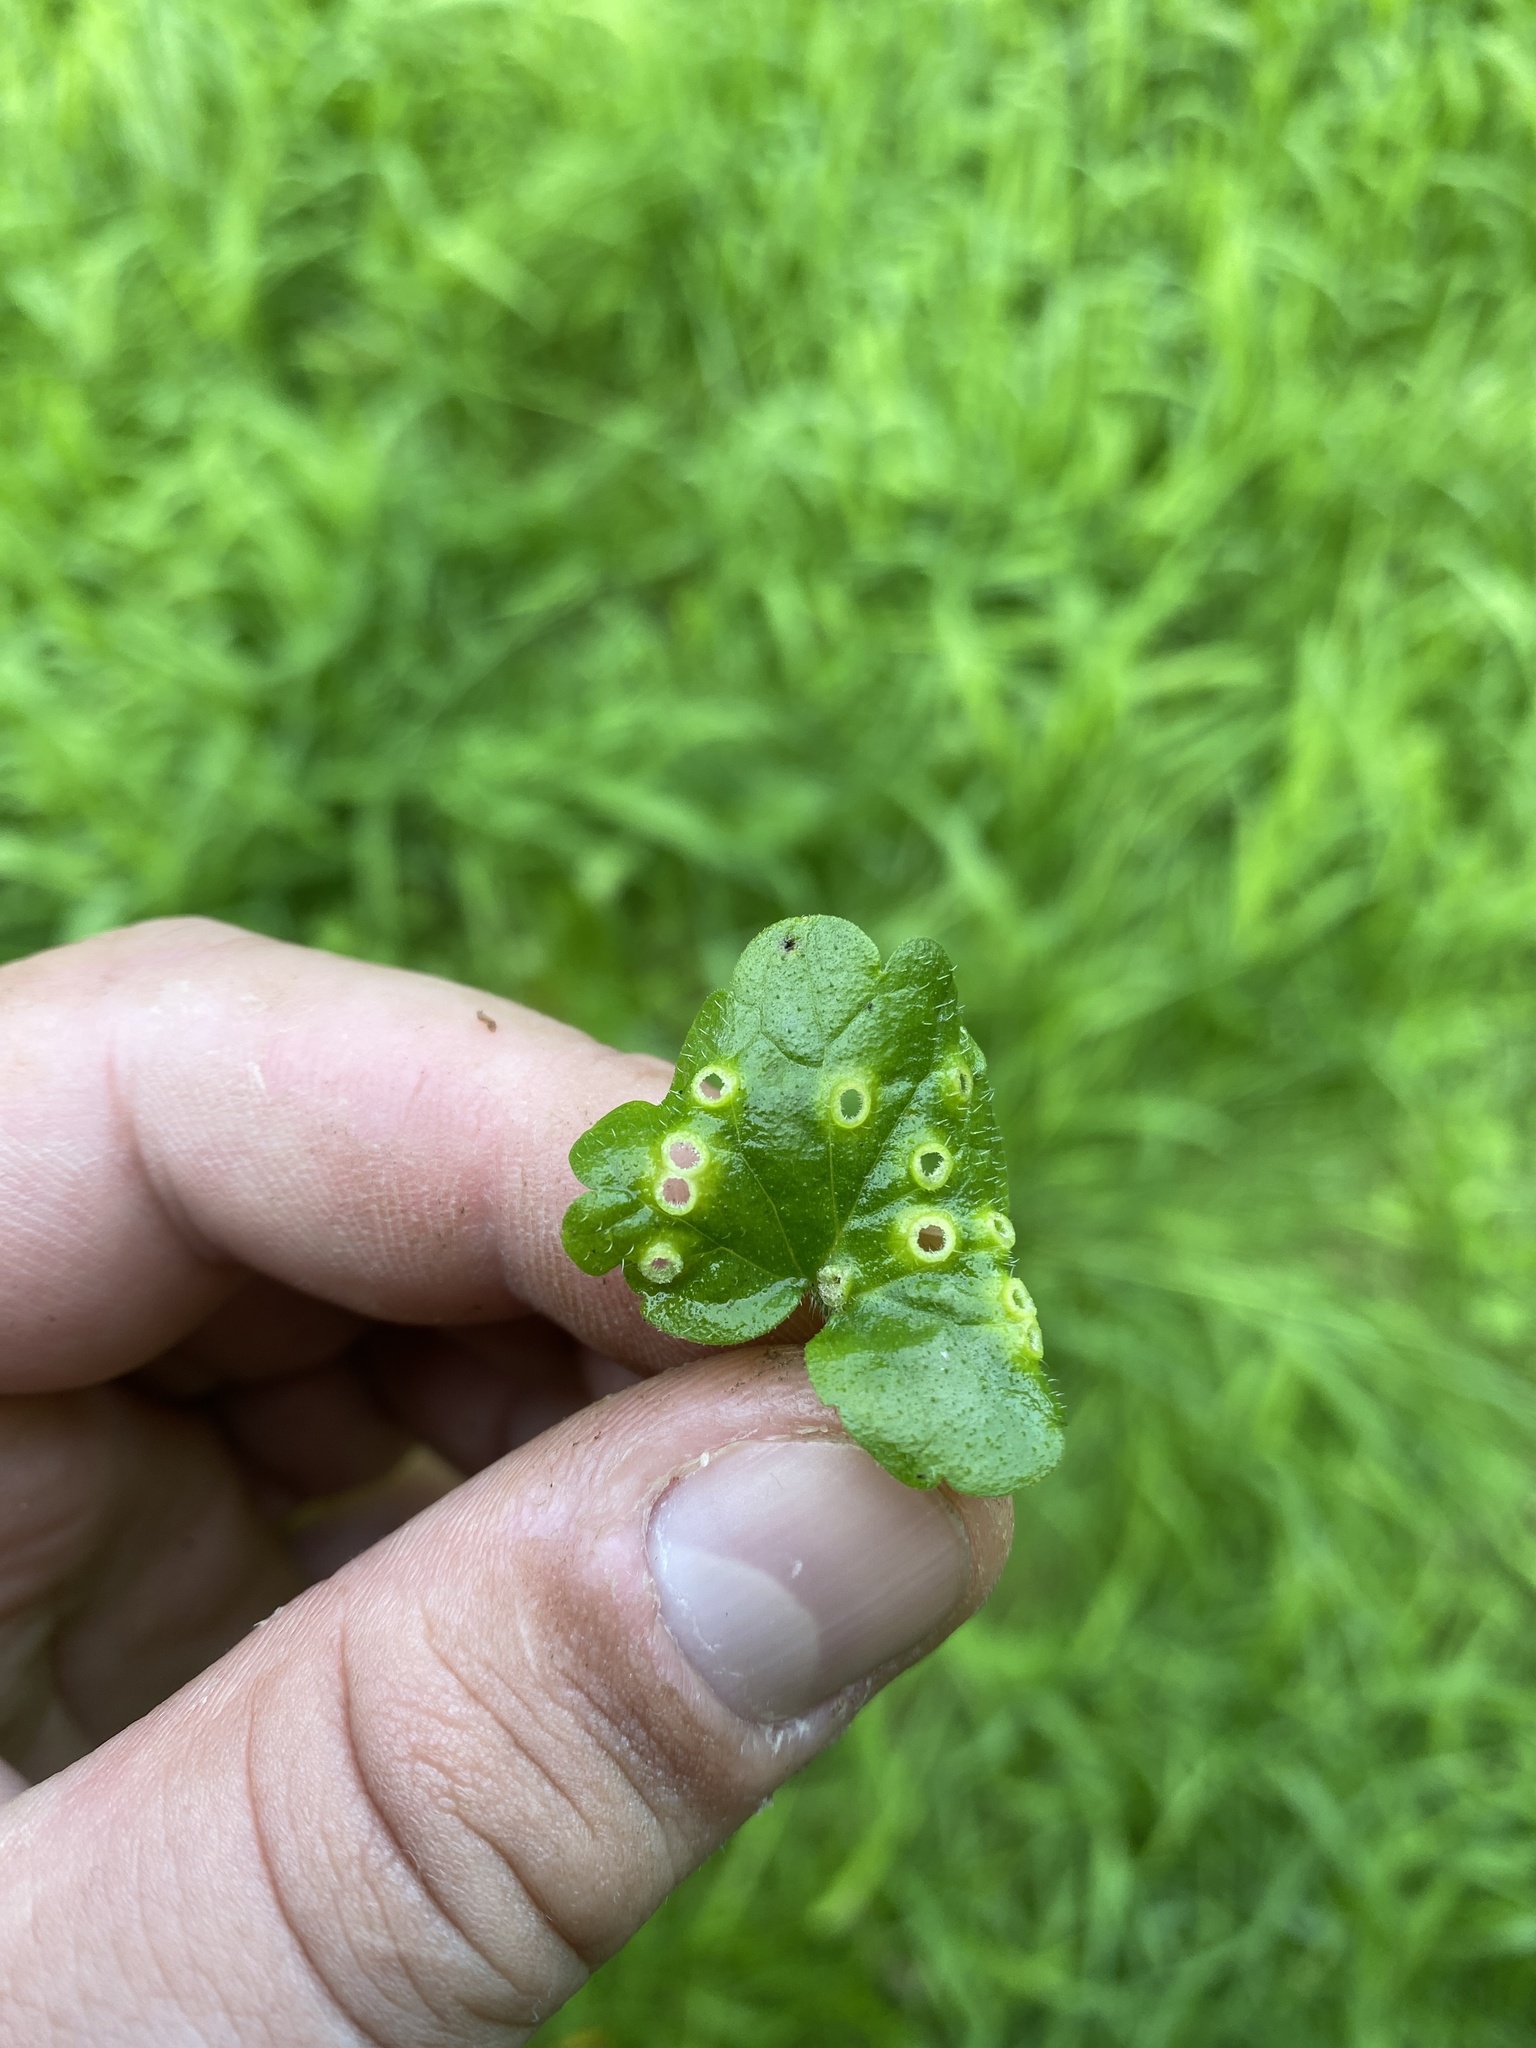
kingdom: Animalia
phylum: Arthropoda
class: Insecta
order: Diptera
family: Cecidomyiidae
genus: Rondaniola
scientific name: Rondaniola bursaria
